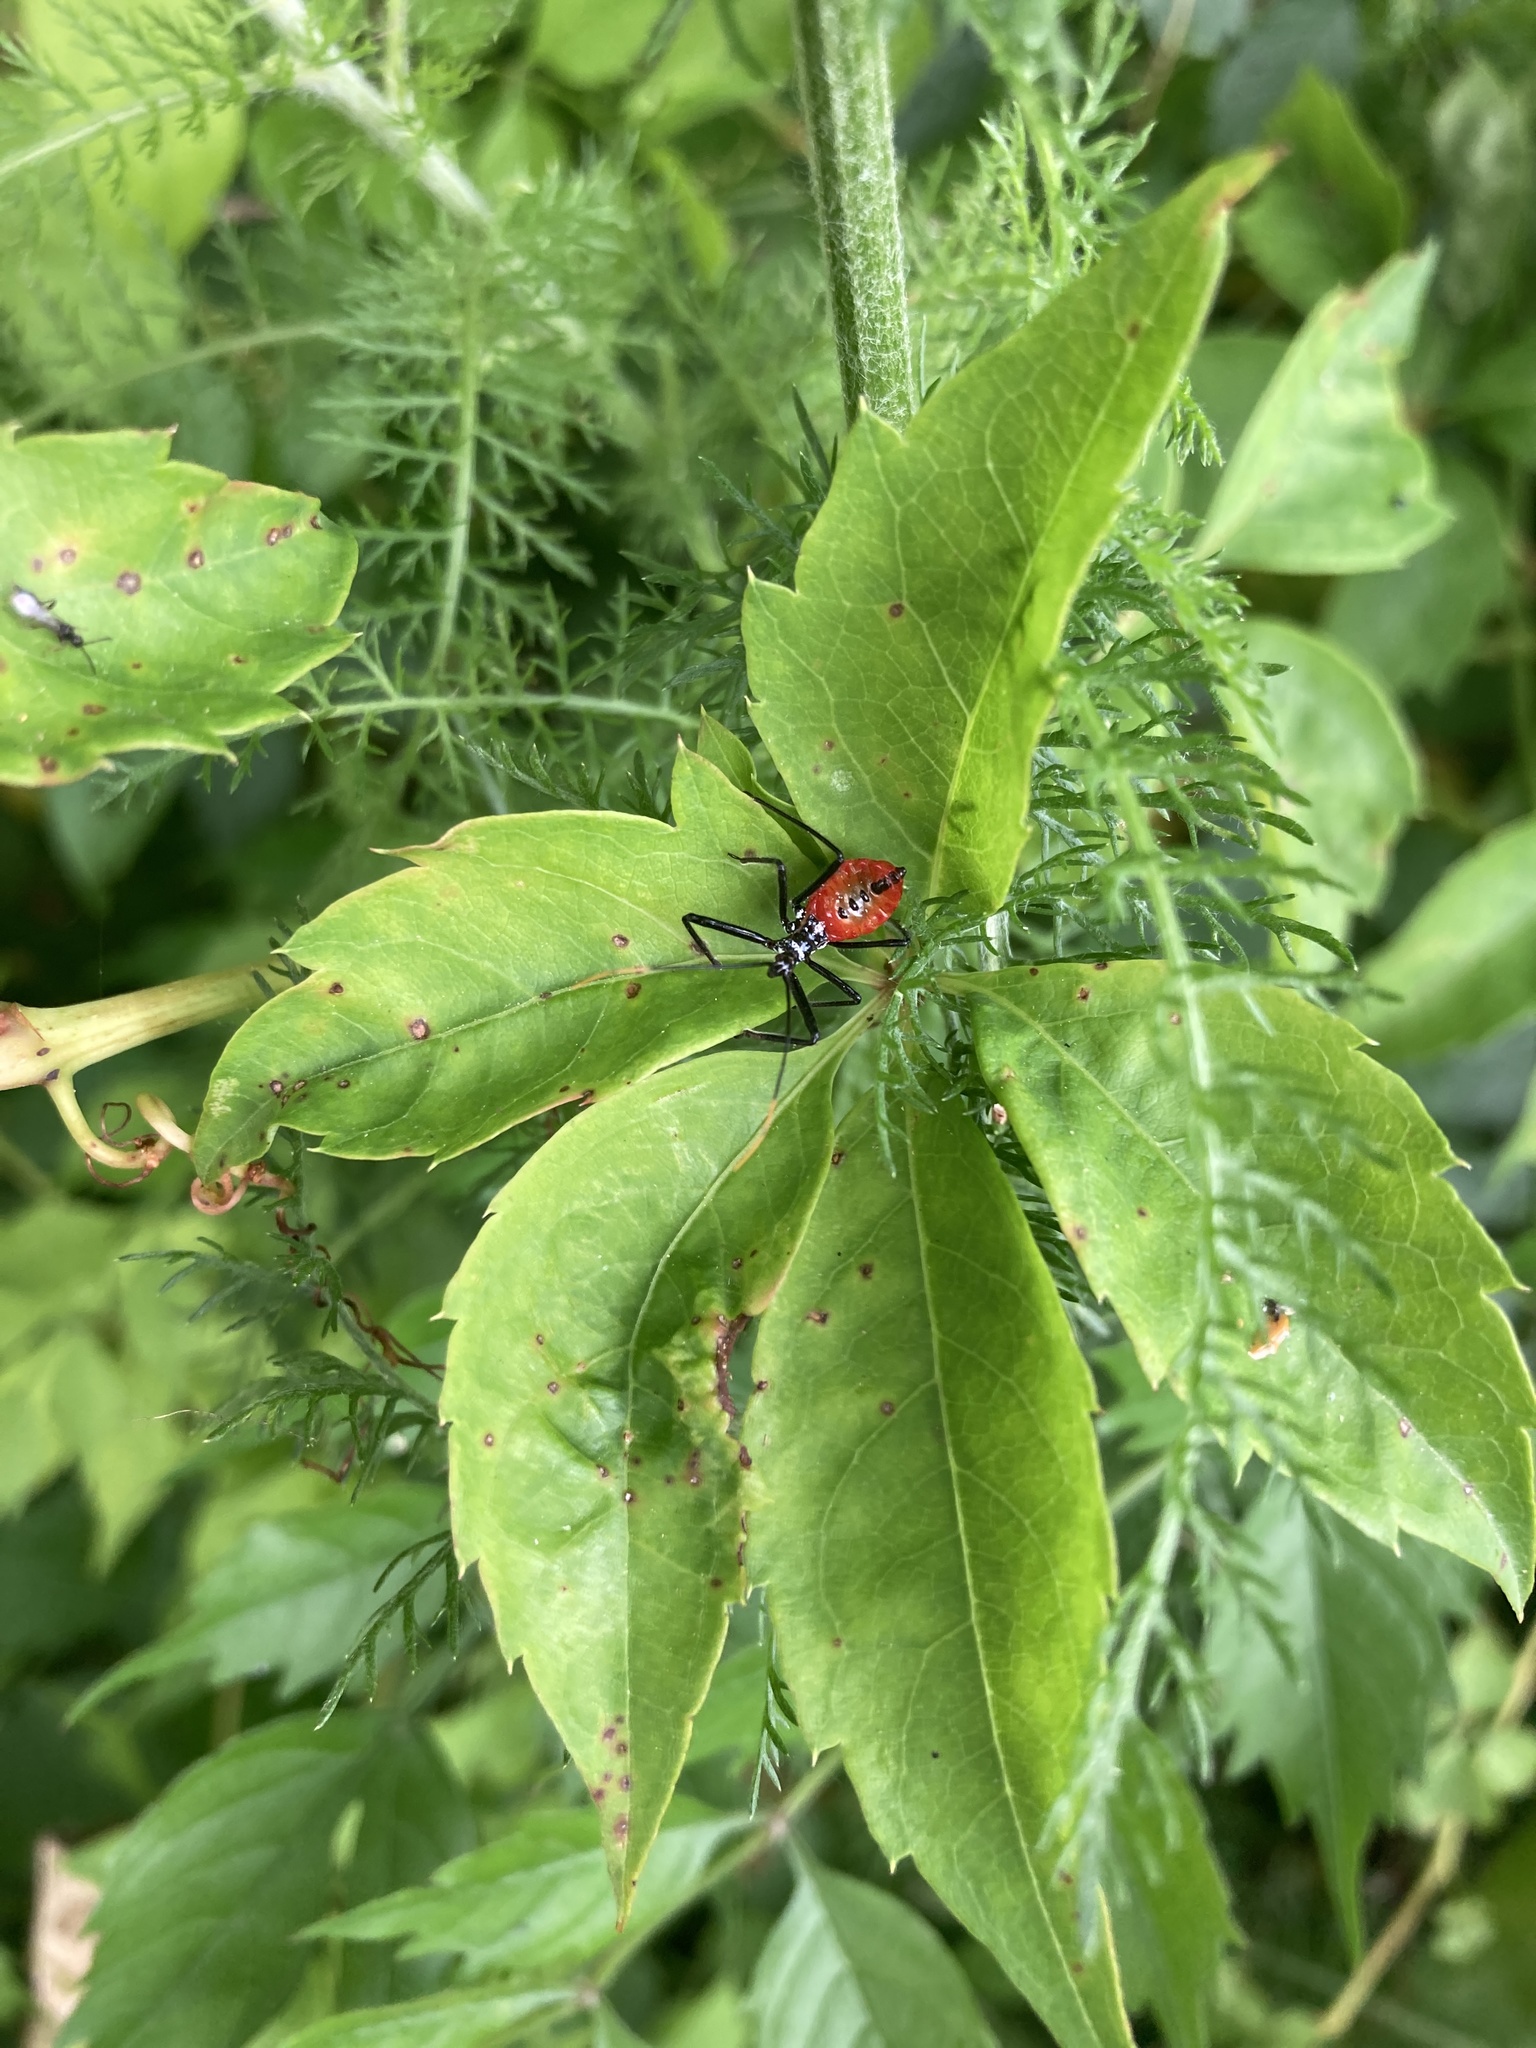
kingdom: Animalia
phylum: Arthropoda
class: Insecta
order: Hemiptera
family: Reduviidae
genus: Arilus
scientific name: Arilus cristatus
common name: North american wheel bug
